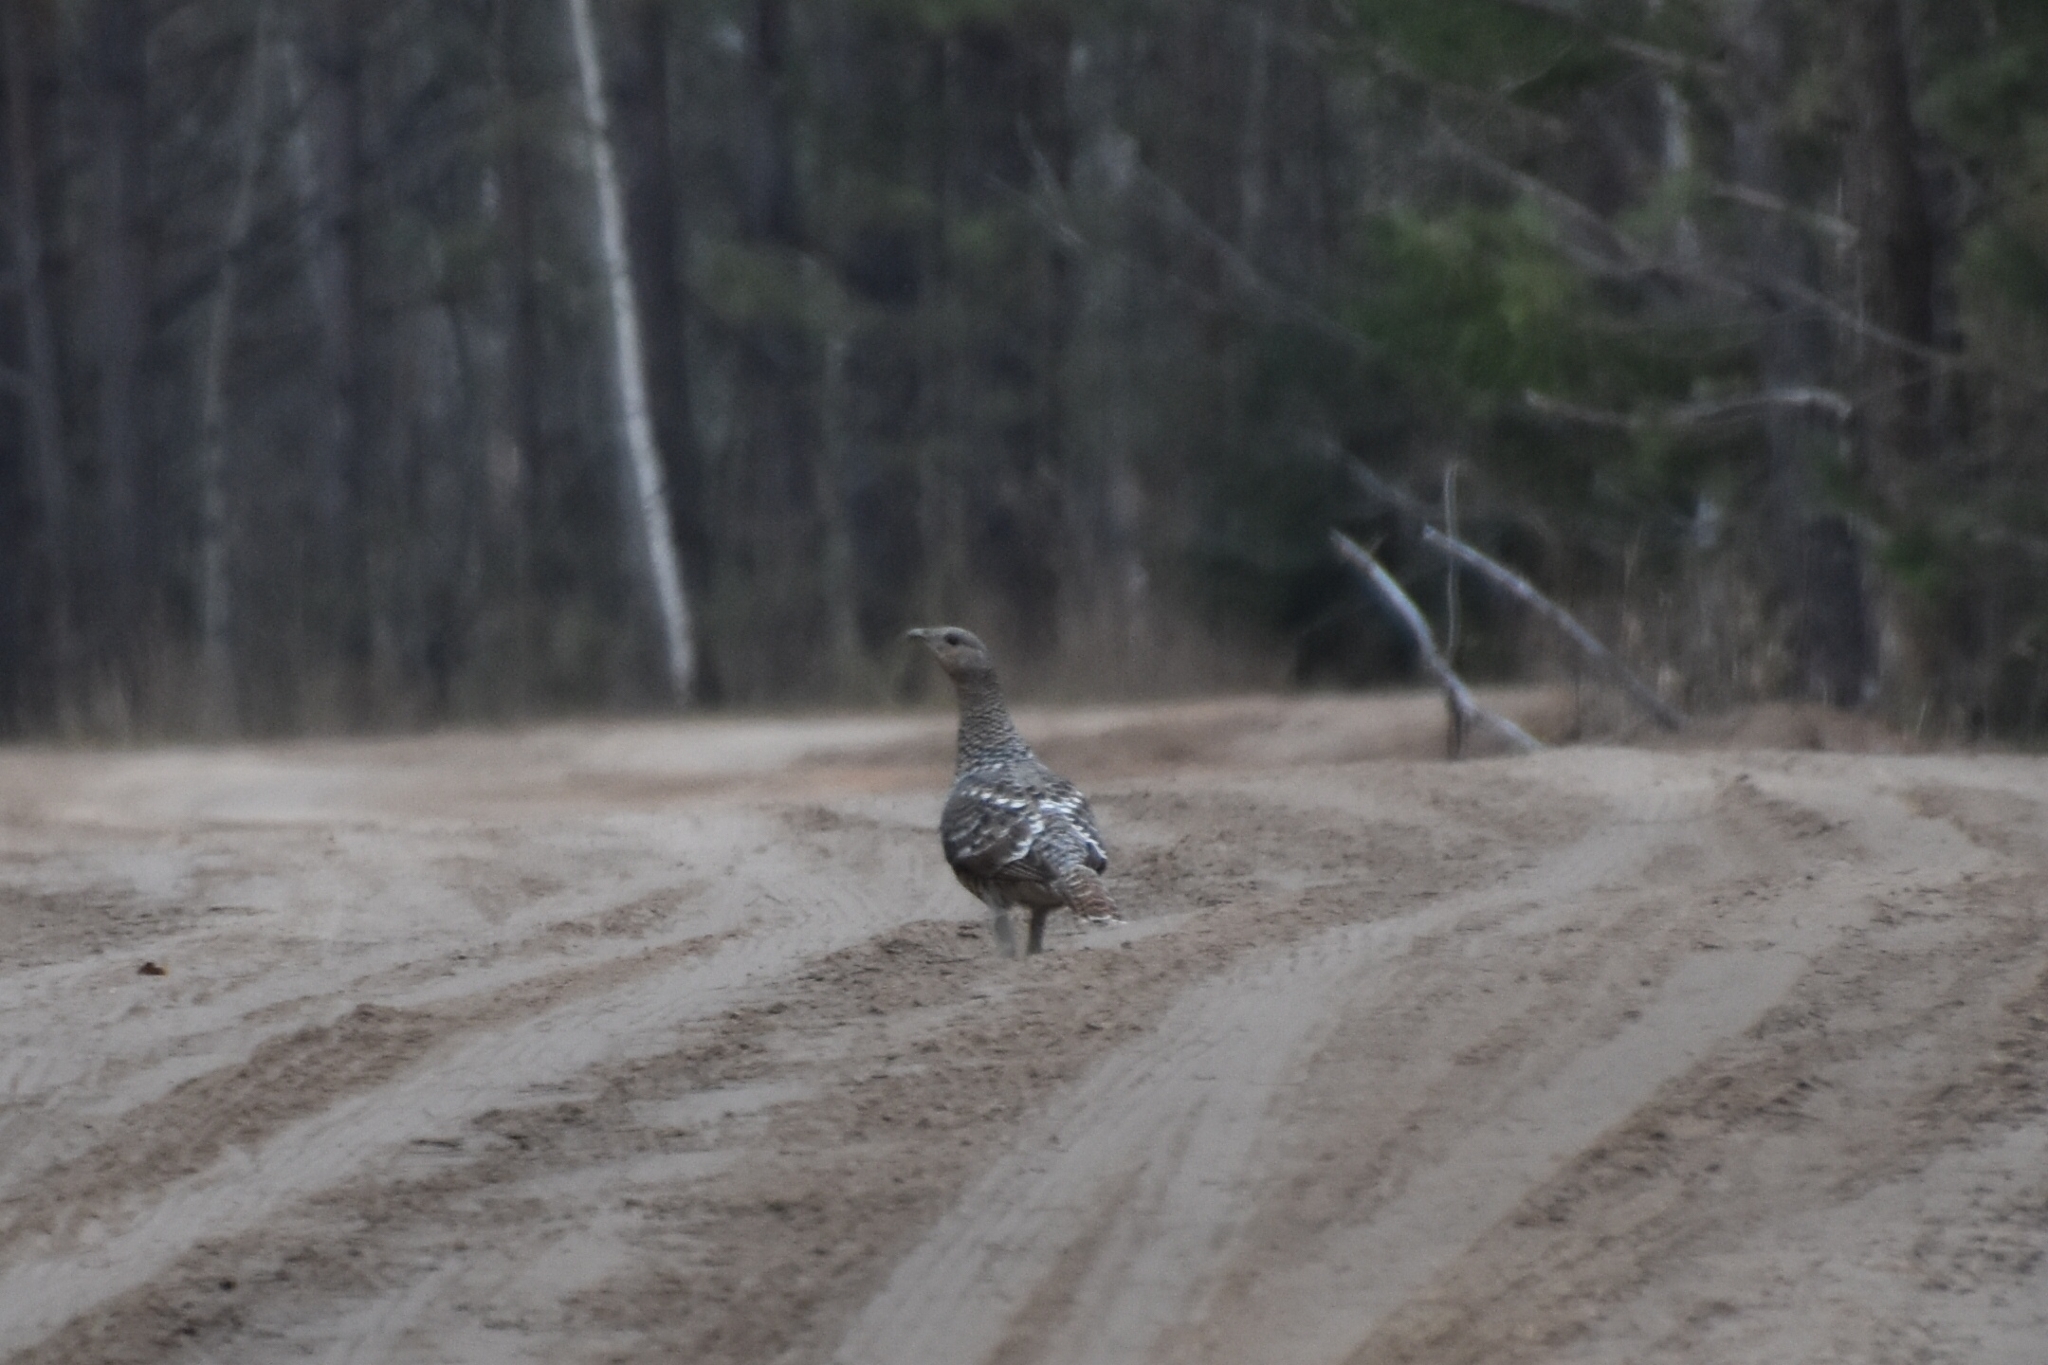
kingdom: Animalia
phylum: Chordata
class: Aves
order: Galliformes
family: Phasianidae
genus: Tetrao
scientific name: Tetrao urogallus
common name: Western capercaillie
